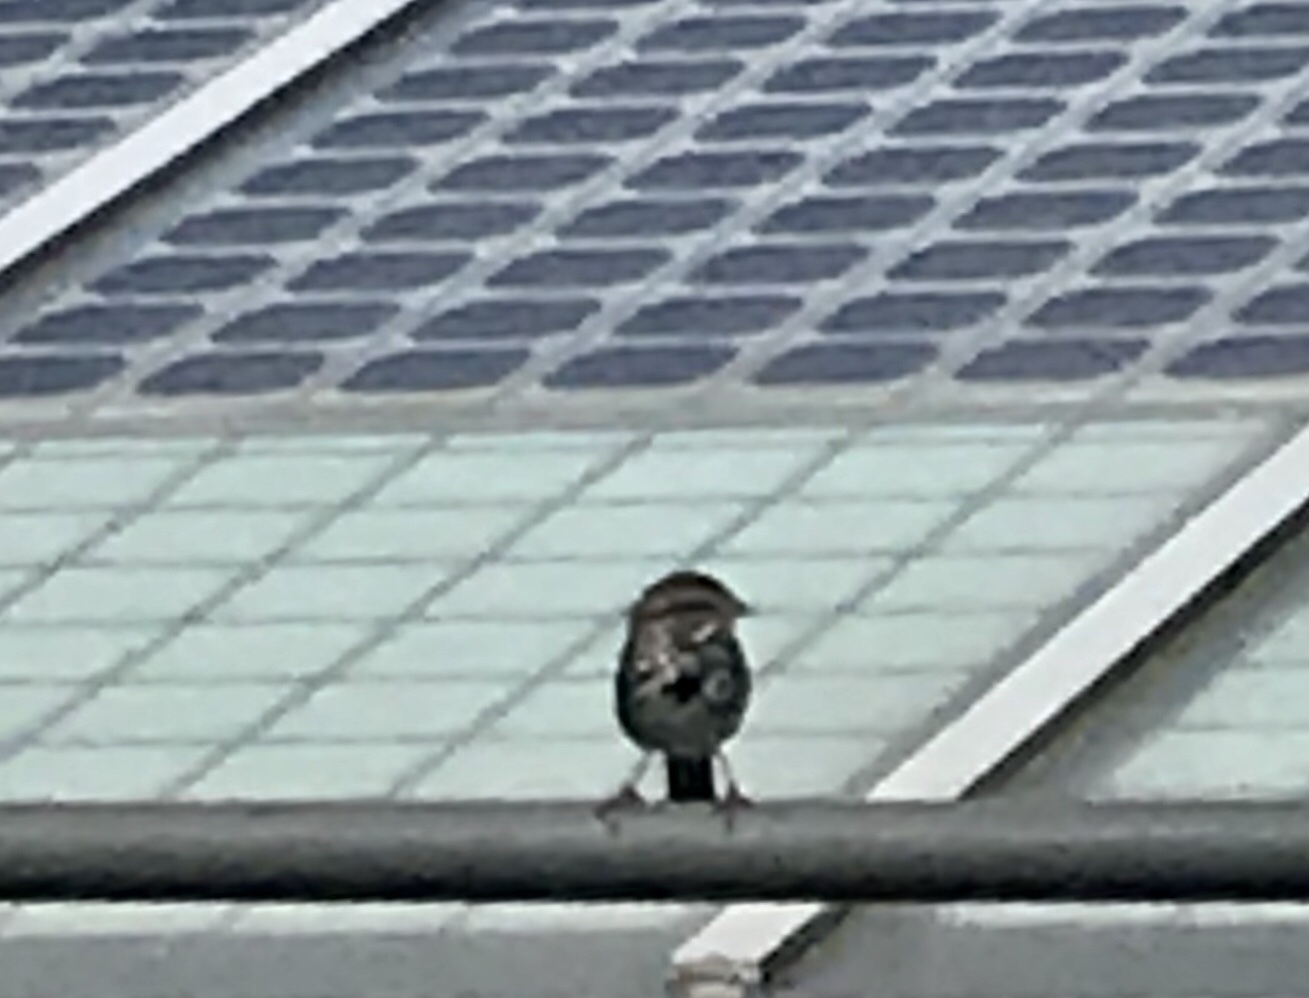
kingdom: Animalia
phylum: Chordata
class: Aves
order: Passeriformes
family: Passerellidae
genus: Melospiza
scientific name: Melospiza melodia
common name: Song sparrow
